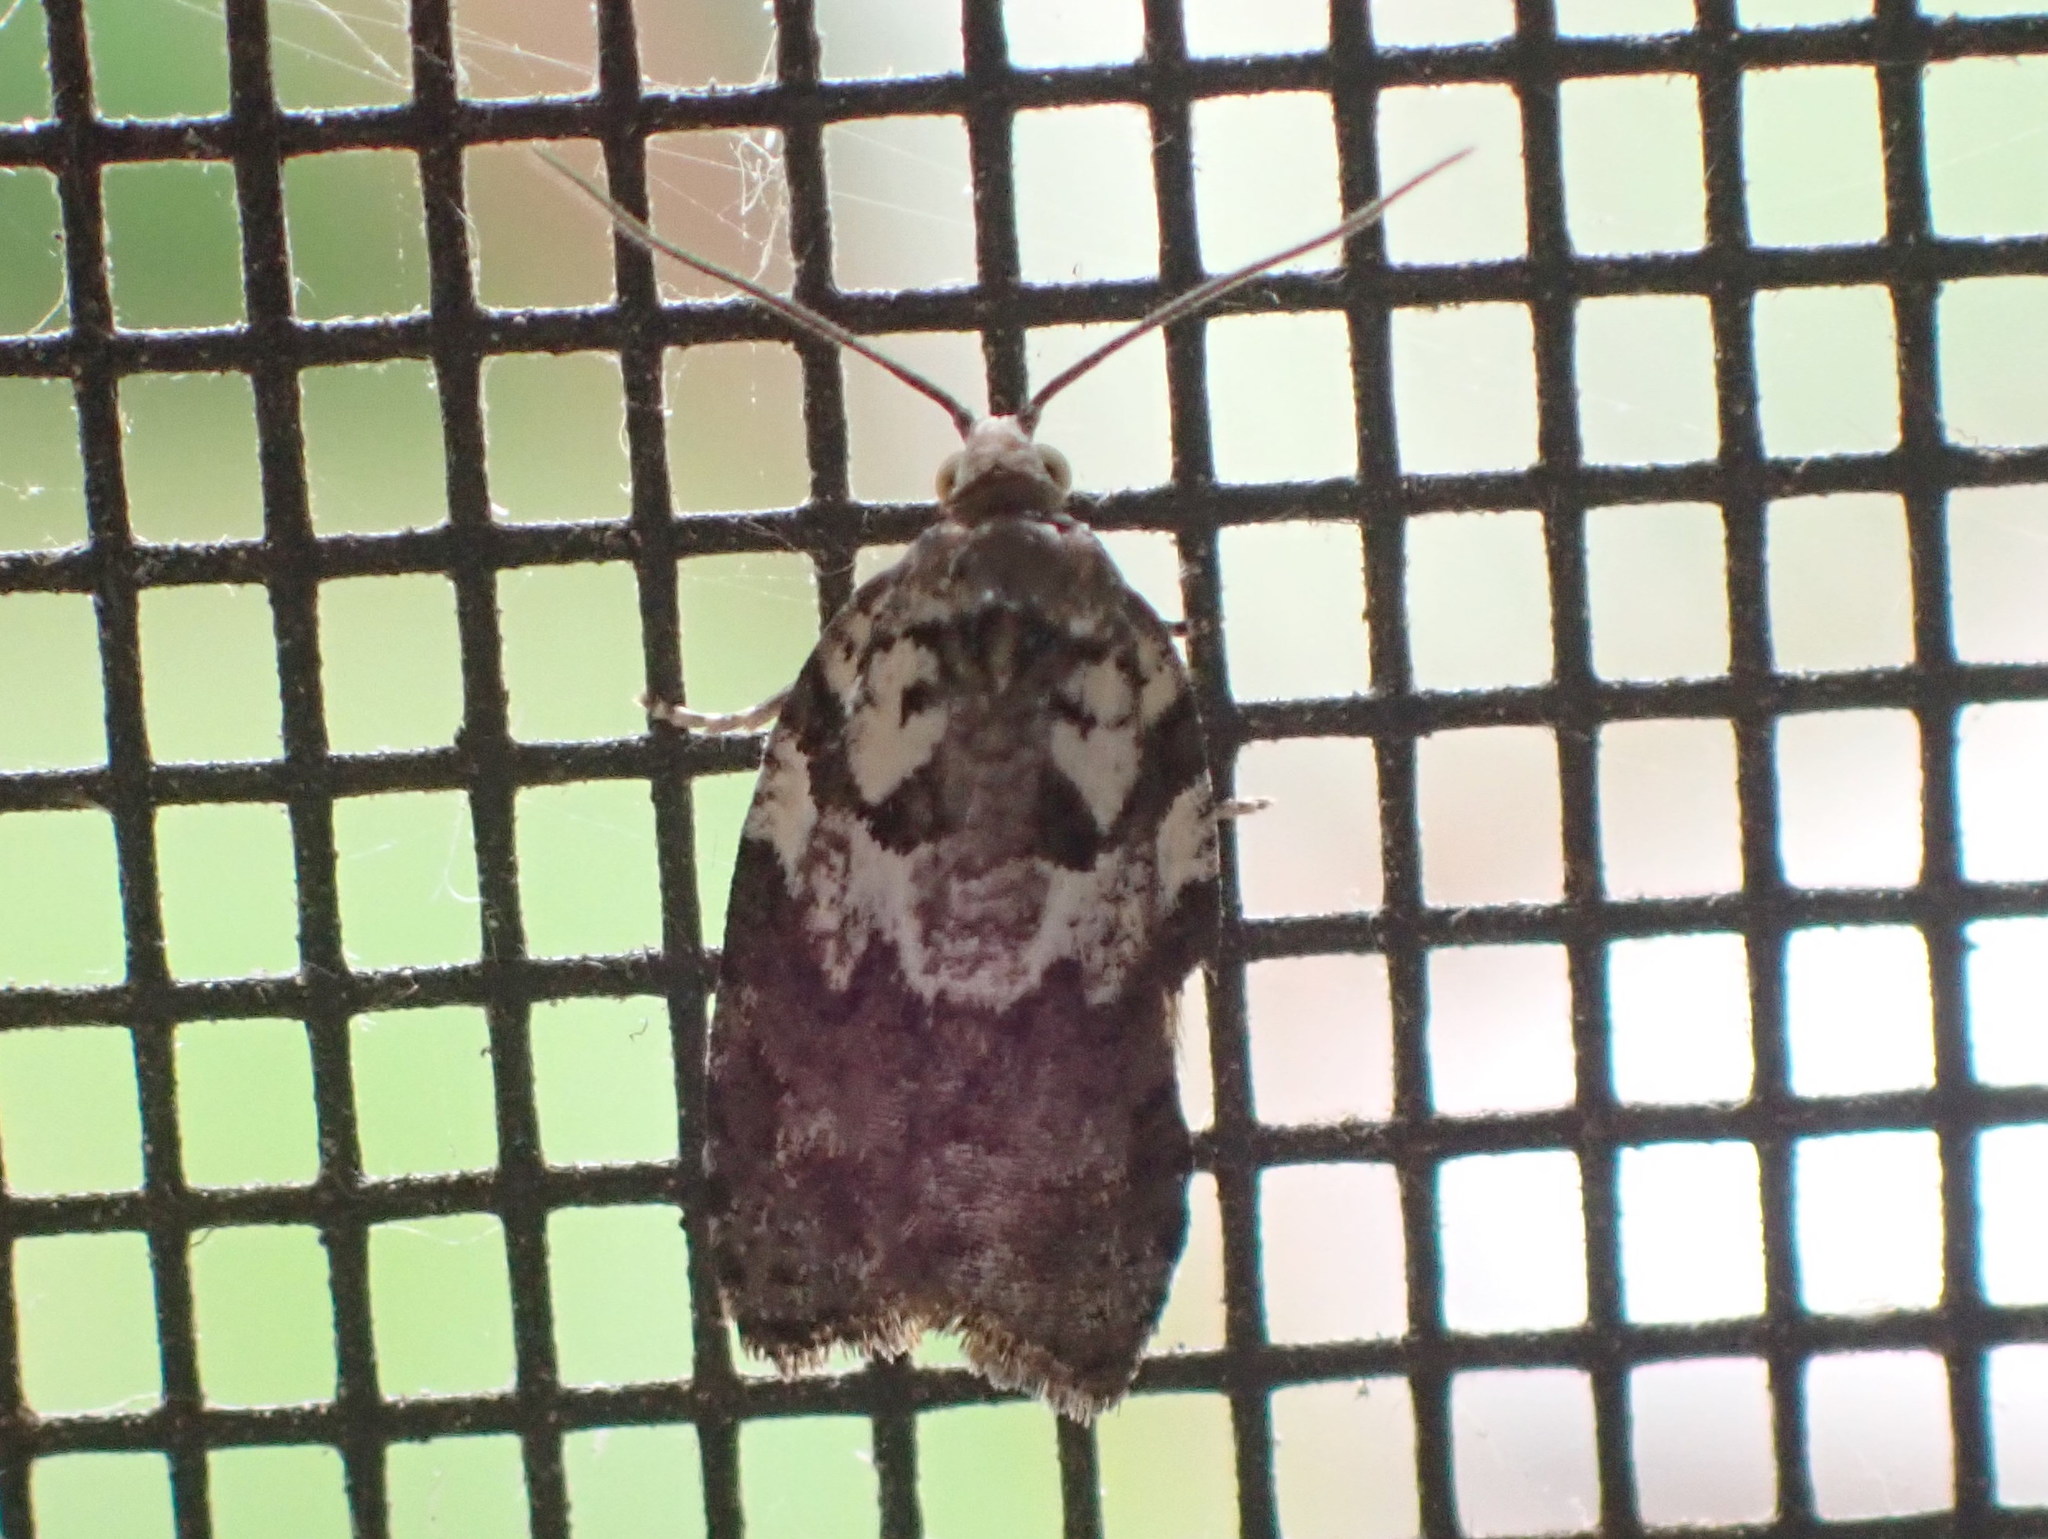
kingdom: Animalia
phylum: Arthropoda
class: Insecta
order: Lepidoptera
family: Tortricidae
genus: Acleris
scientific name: Acleris variana
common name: Eastern black-headed budworm moth
